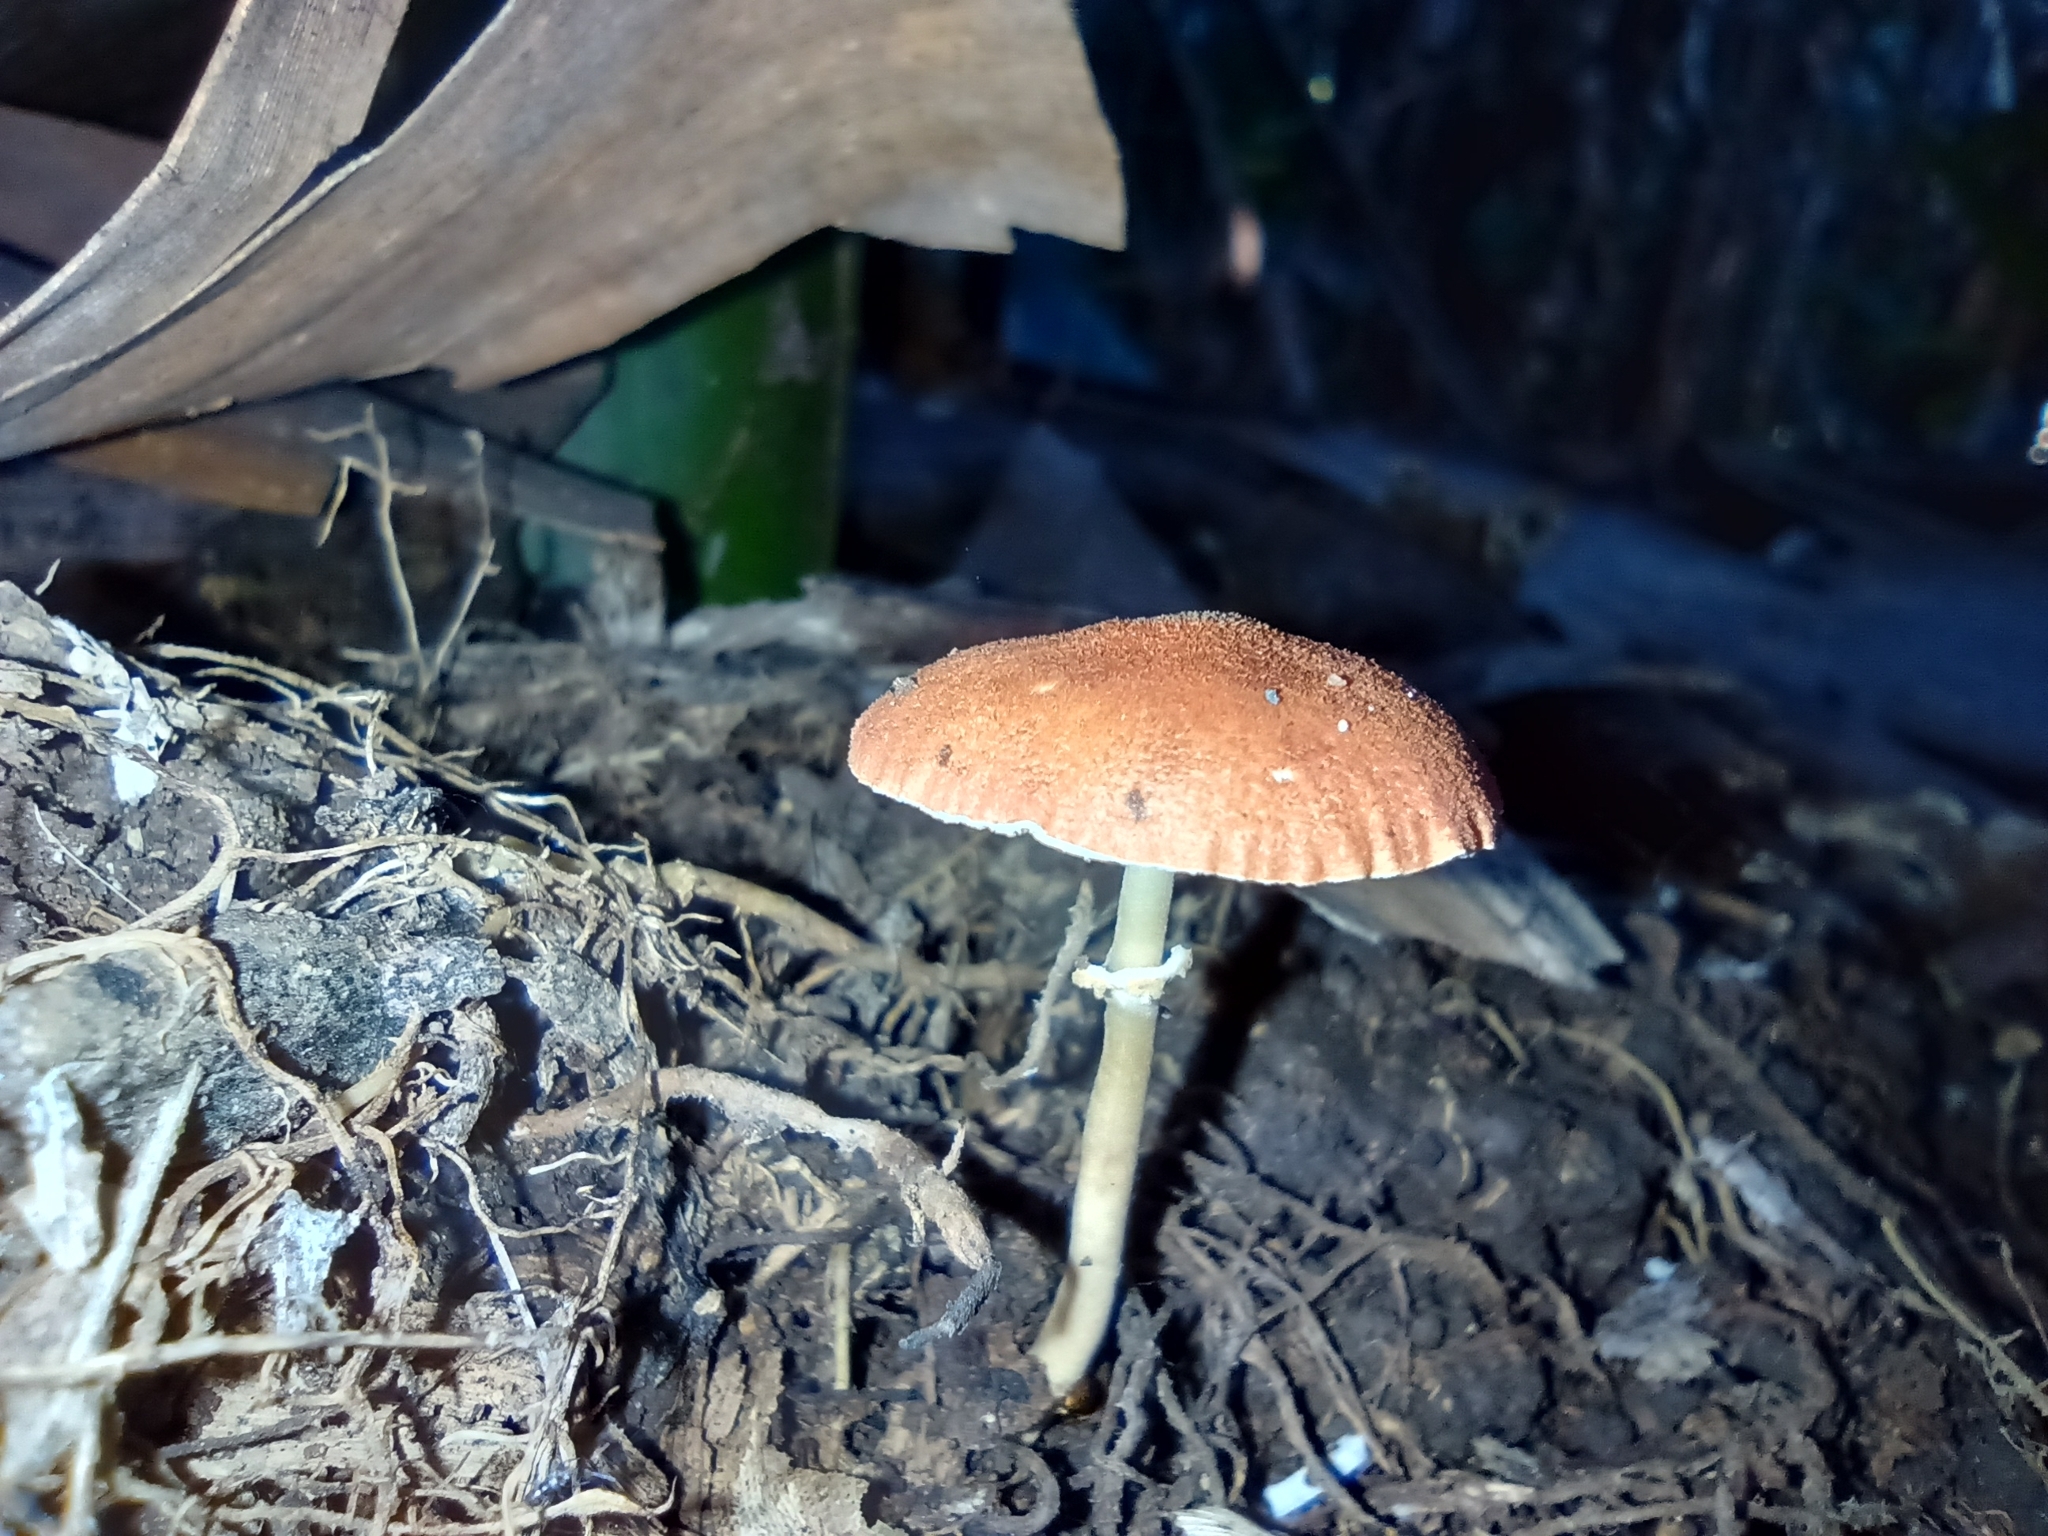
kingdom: Fungi
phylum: Basidiomycota
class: Agaricomycetes
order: Agaricales
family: Agaricaceae
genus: Leucoagaricus
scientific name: Leucoagaricus rubrotinctus
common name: Ruby dapperling
